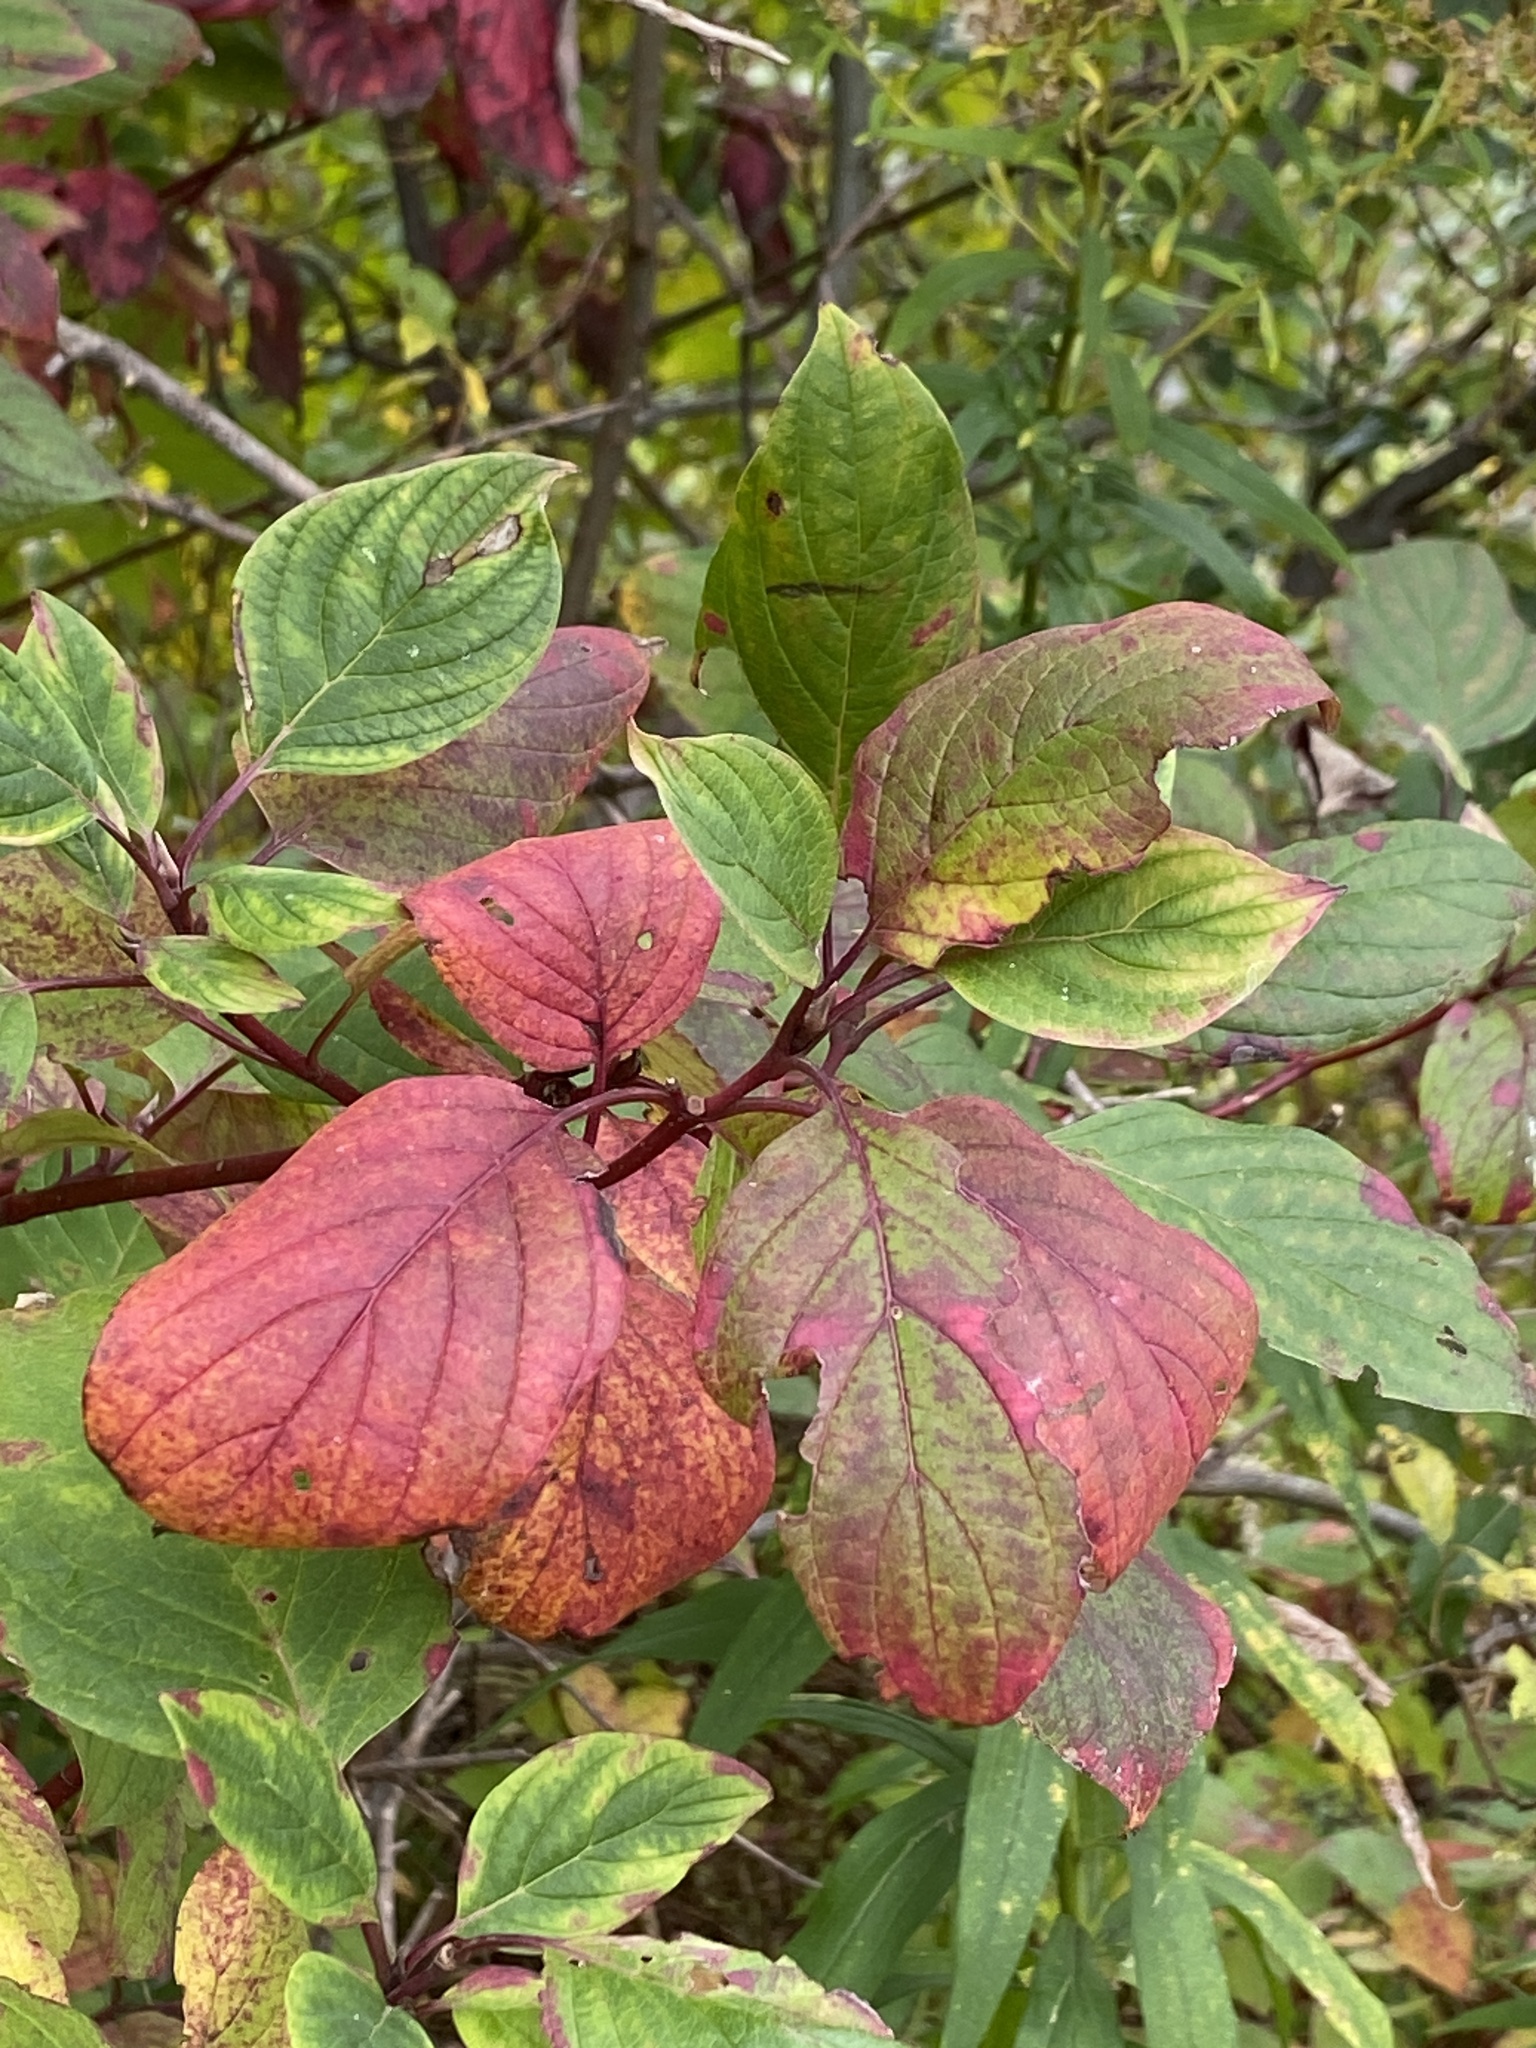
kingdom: Plantae
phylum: Tracheophyta
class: Magnoliopsida
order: Cornales
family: Cornaceae
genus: Cornus
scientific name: Cornus sericea
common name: Red-osier dogwood
